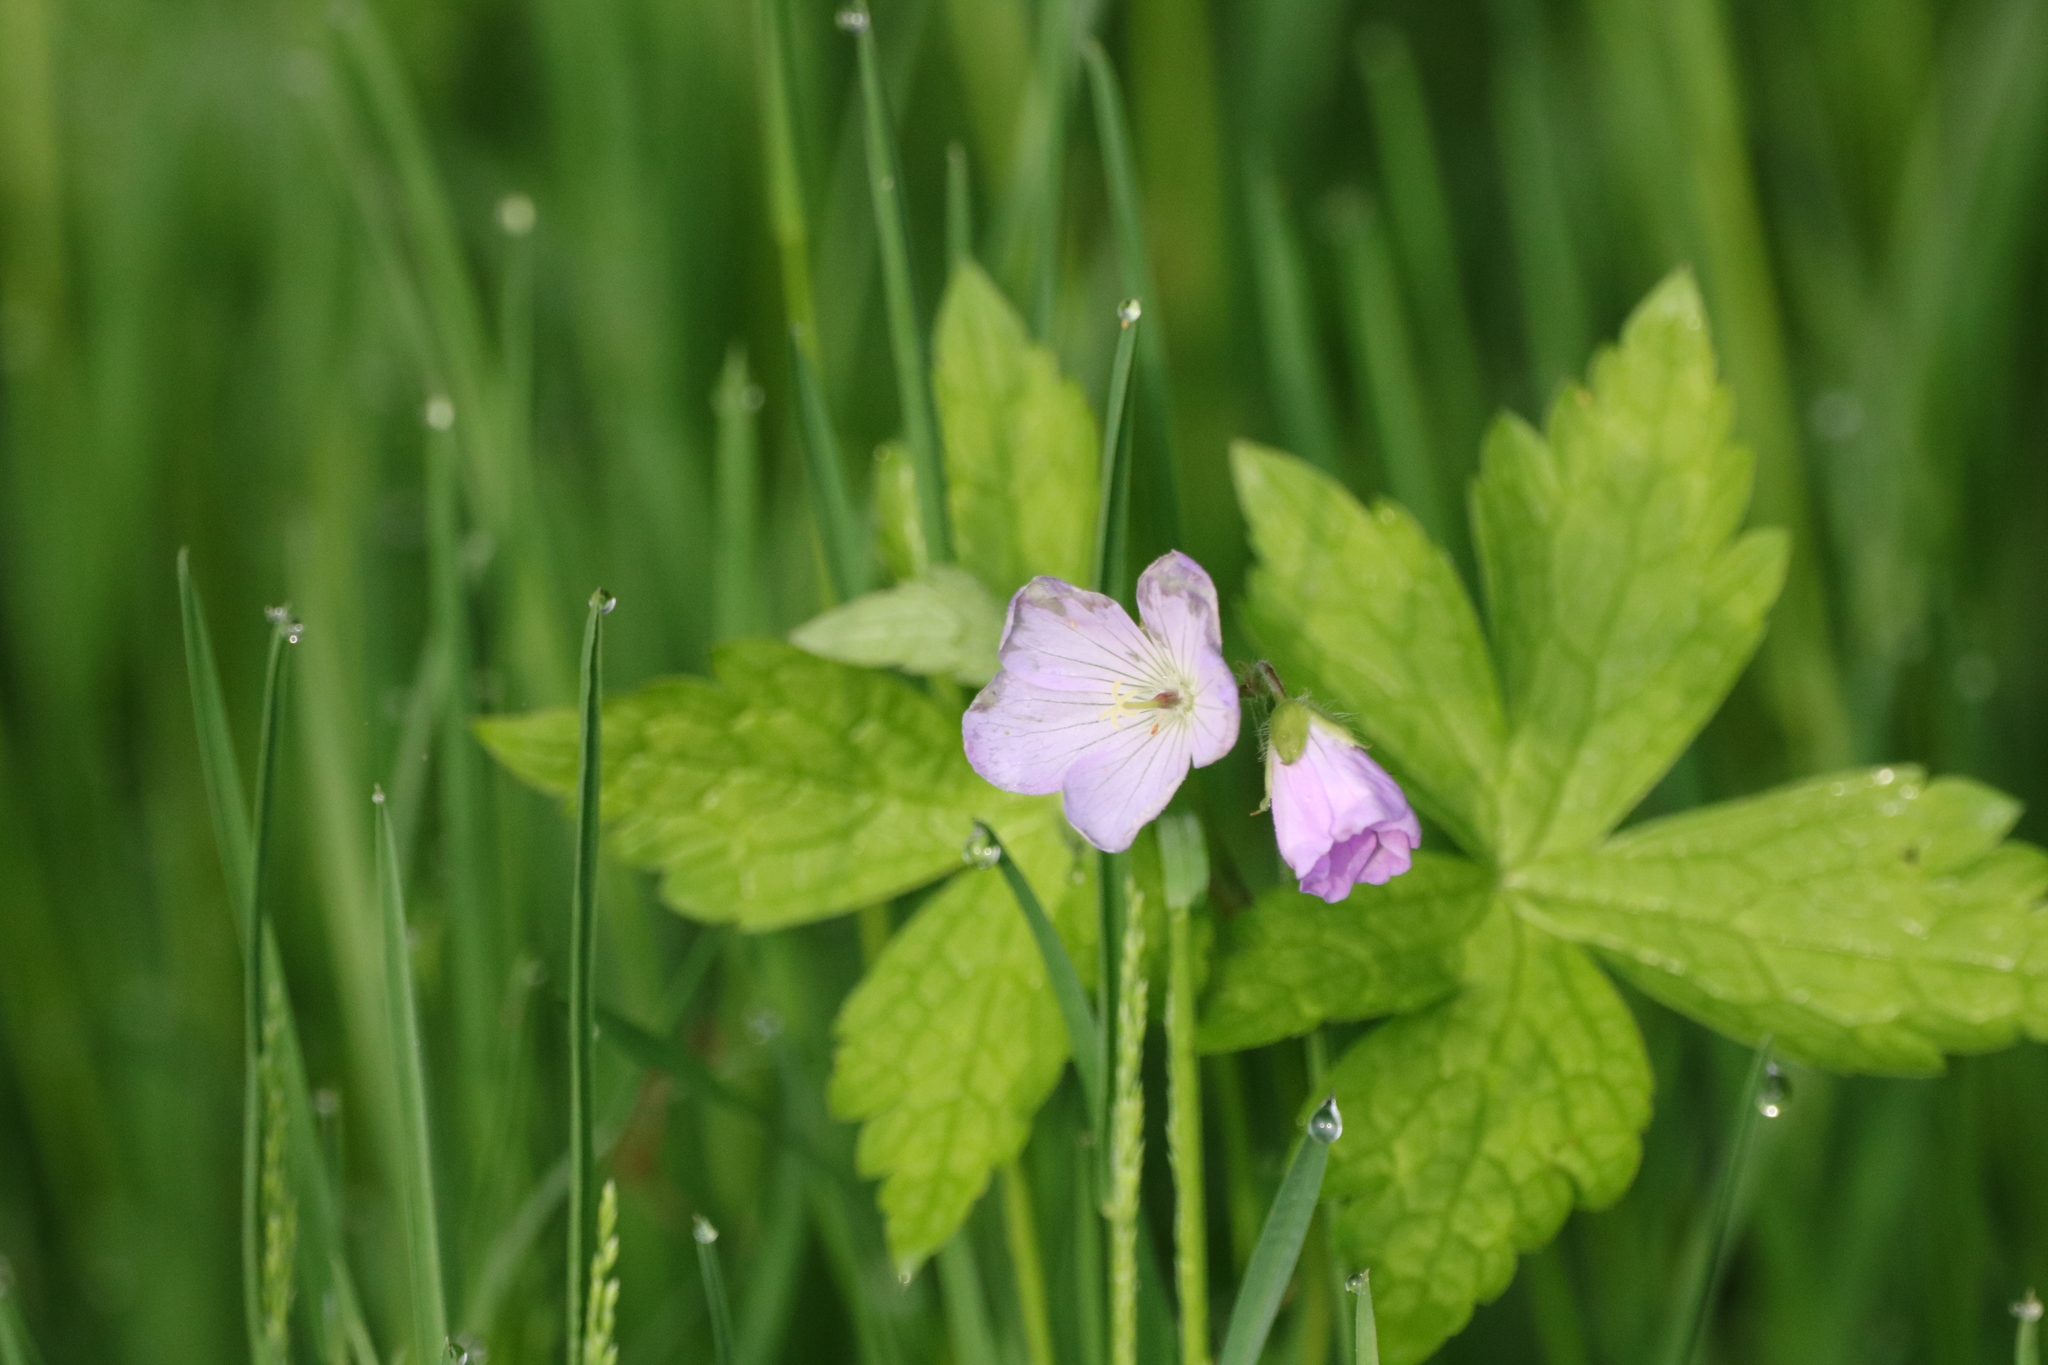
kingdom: Plantae
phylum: Tracheophyta
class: Magnoliopsida
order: Geraniales
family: Geraniaceae
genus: Geranium
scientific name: Geranium maculatum
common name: Spotted geranium
